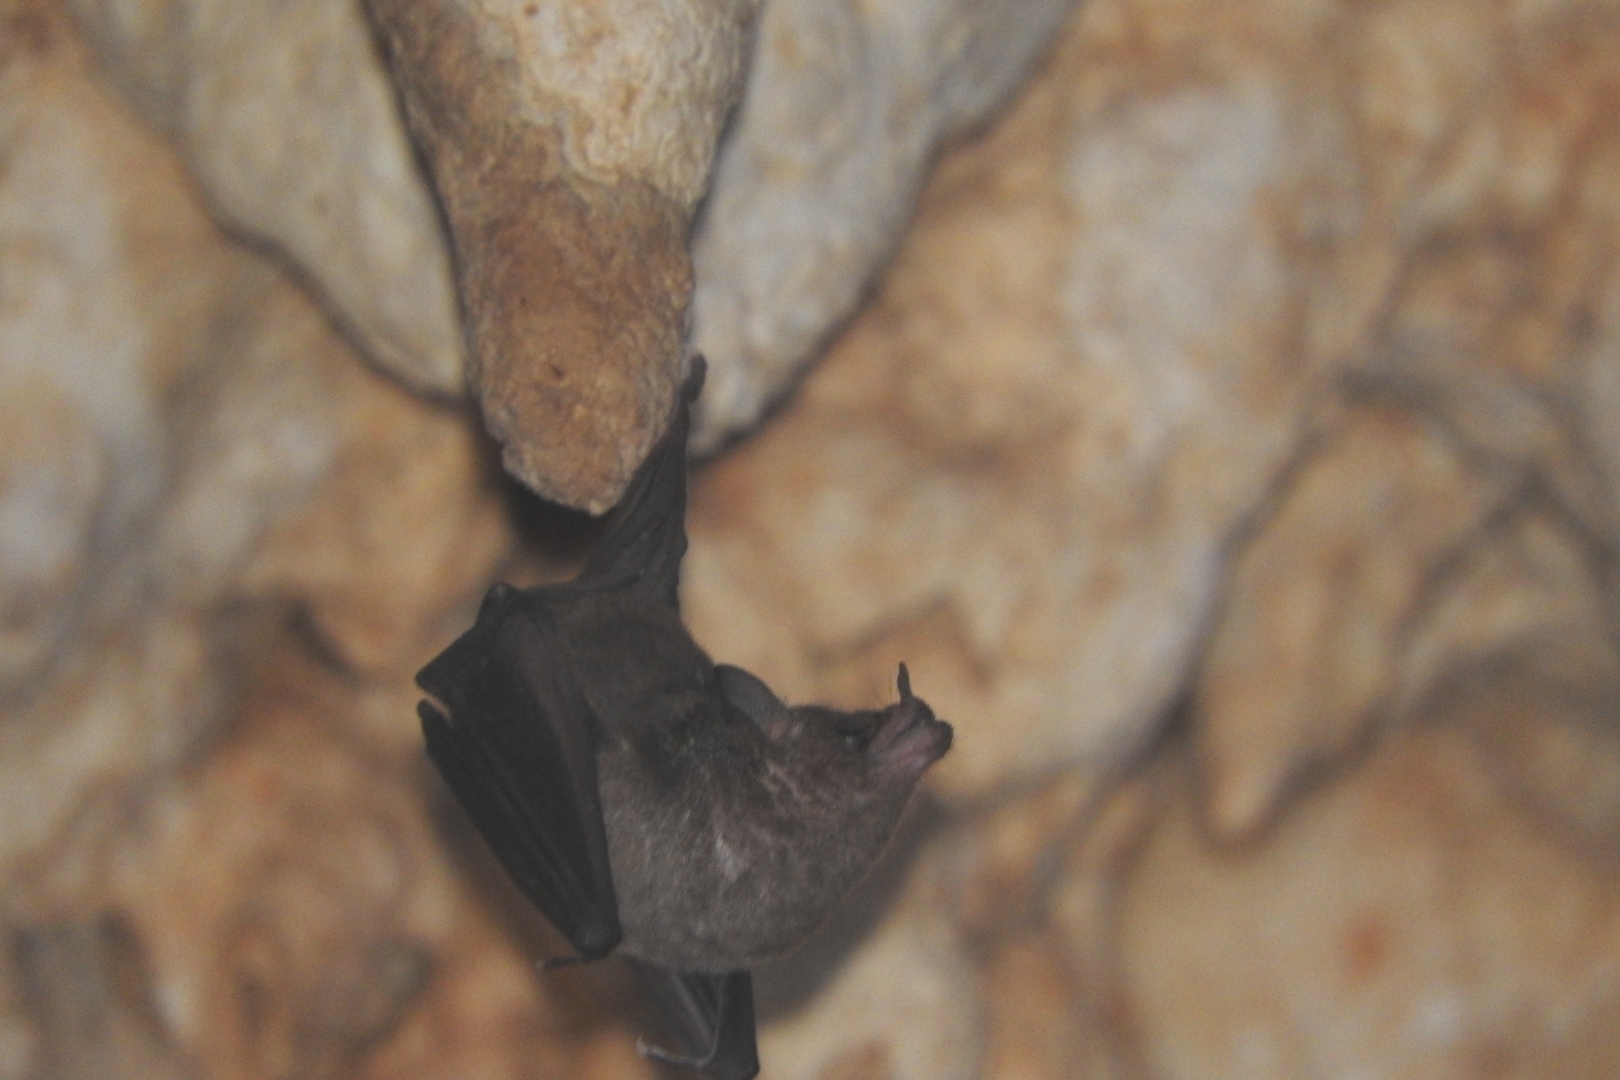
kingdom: Animalia
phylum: Chordata
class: Mammalia
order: Chiroptera
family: Phyllostomidae
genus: Glossophaga
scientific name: Glossophaga soricina
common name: Pallas's long-tongued bat
